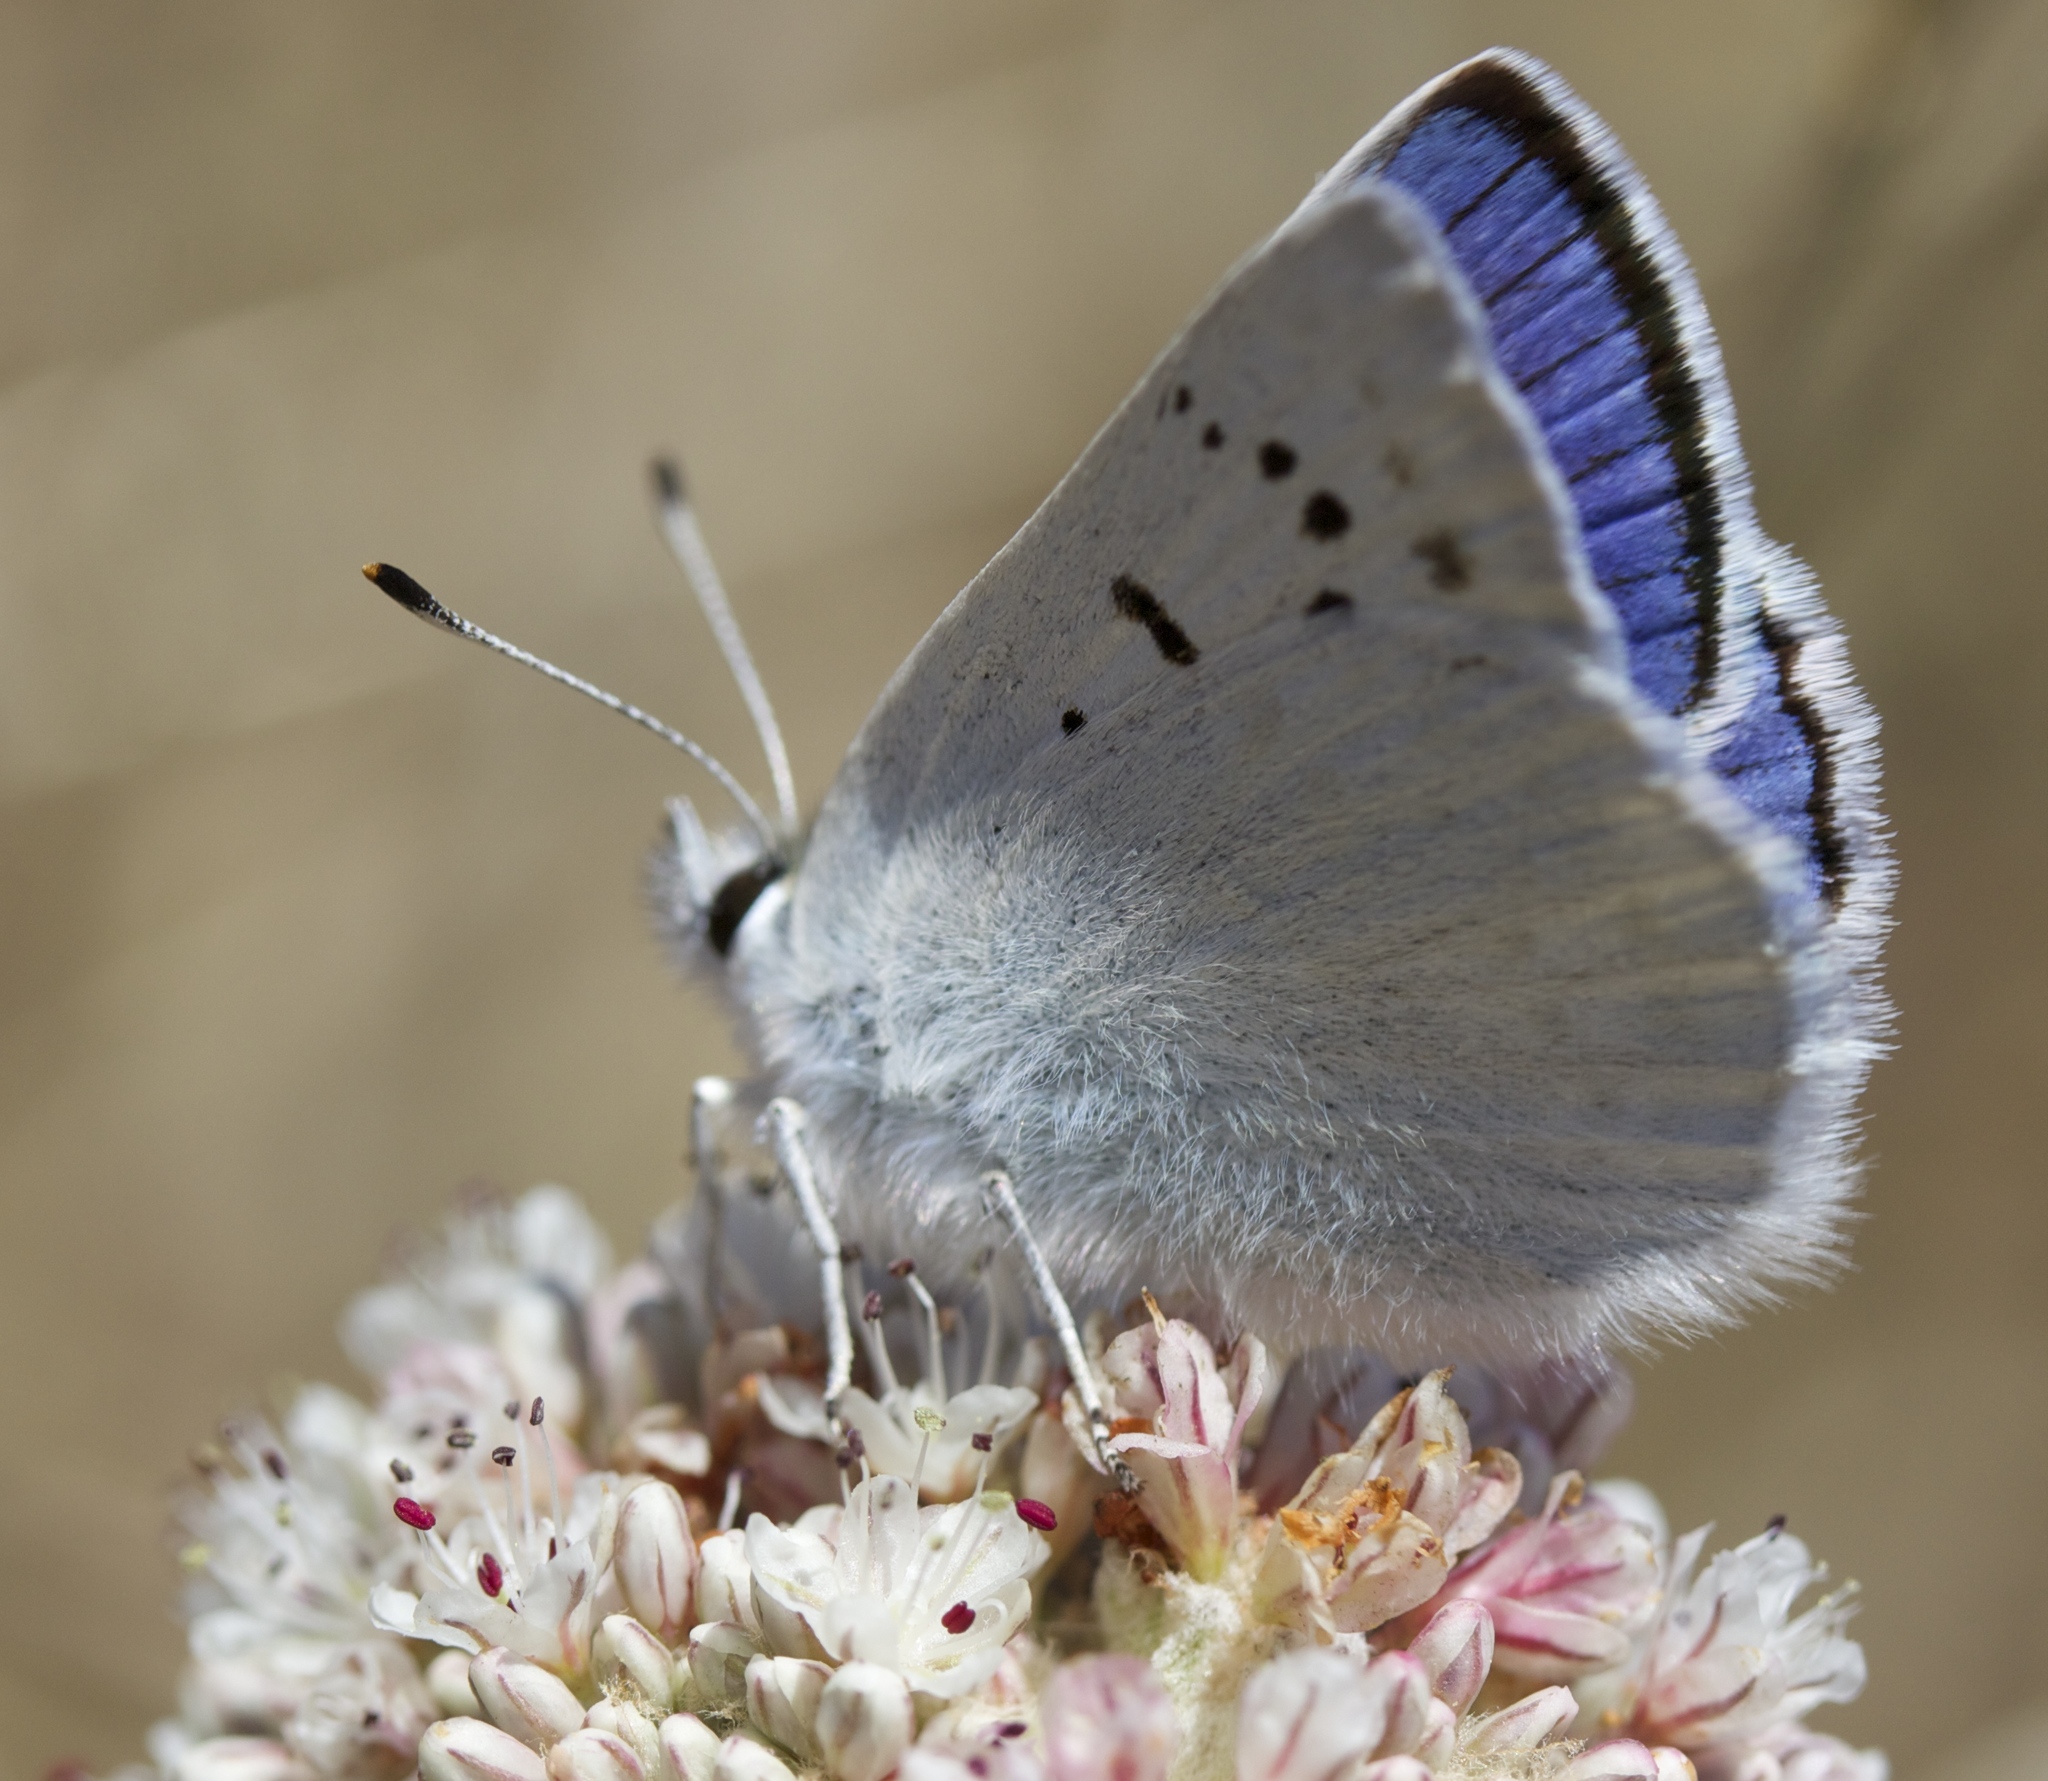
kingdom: Animalia
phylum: Arthropoda
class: Insecta
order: Lepidoptera
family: Lycaenidae
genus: Tharsalea
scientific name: Tharsalea heteronea
